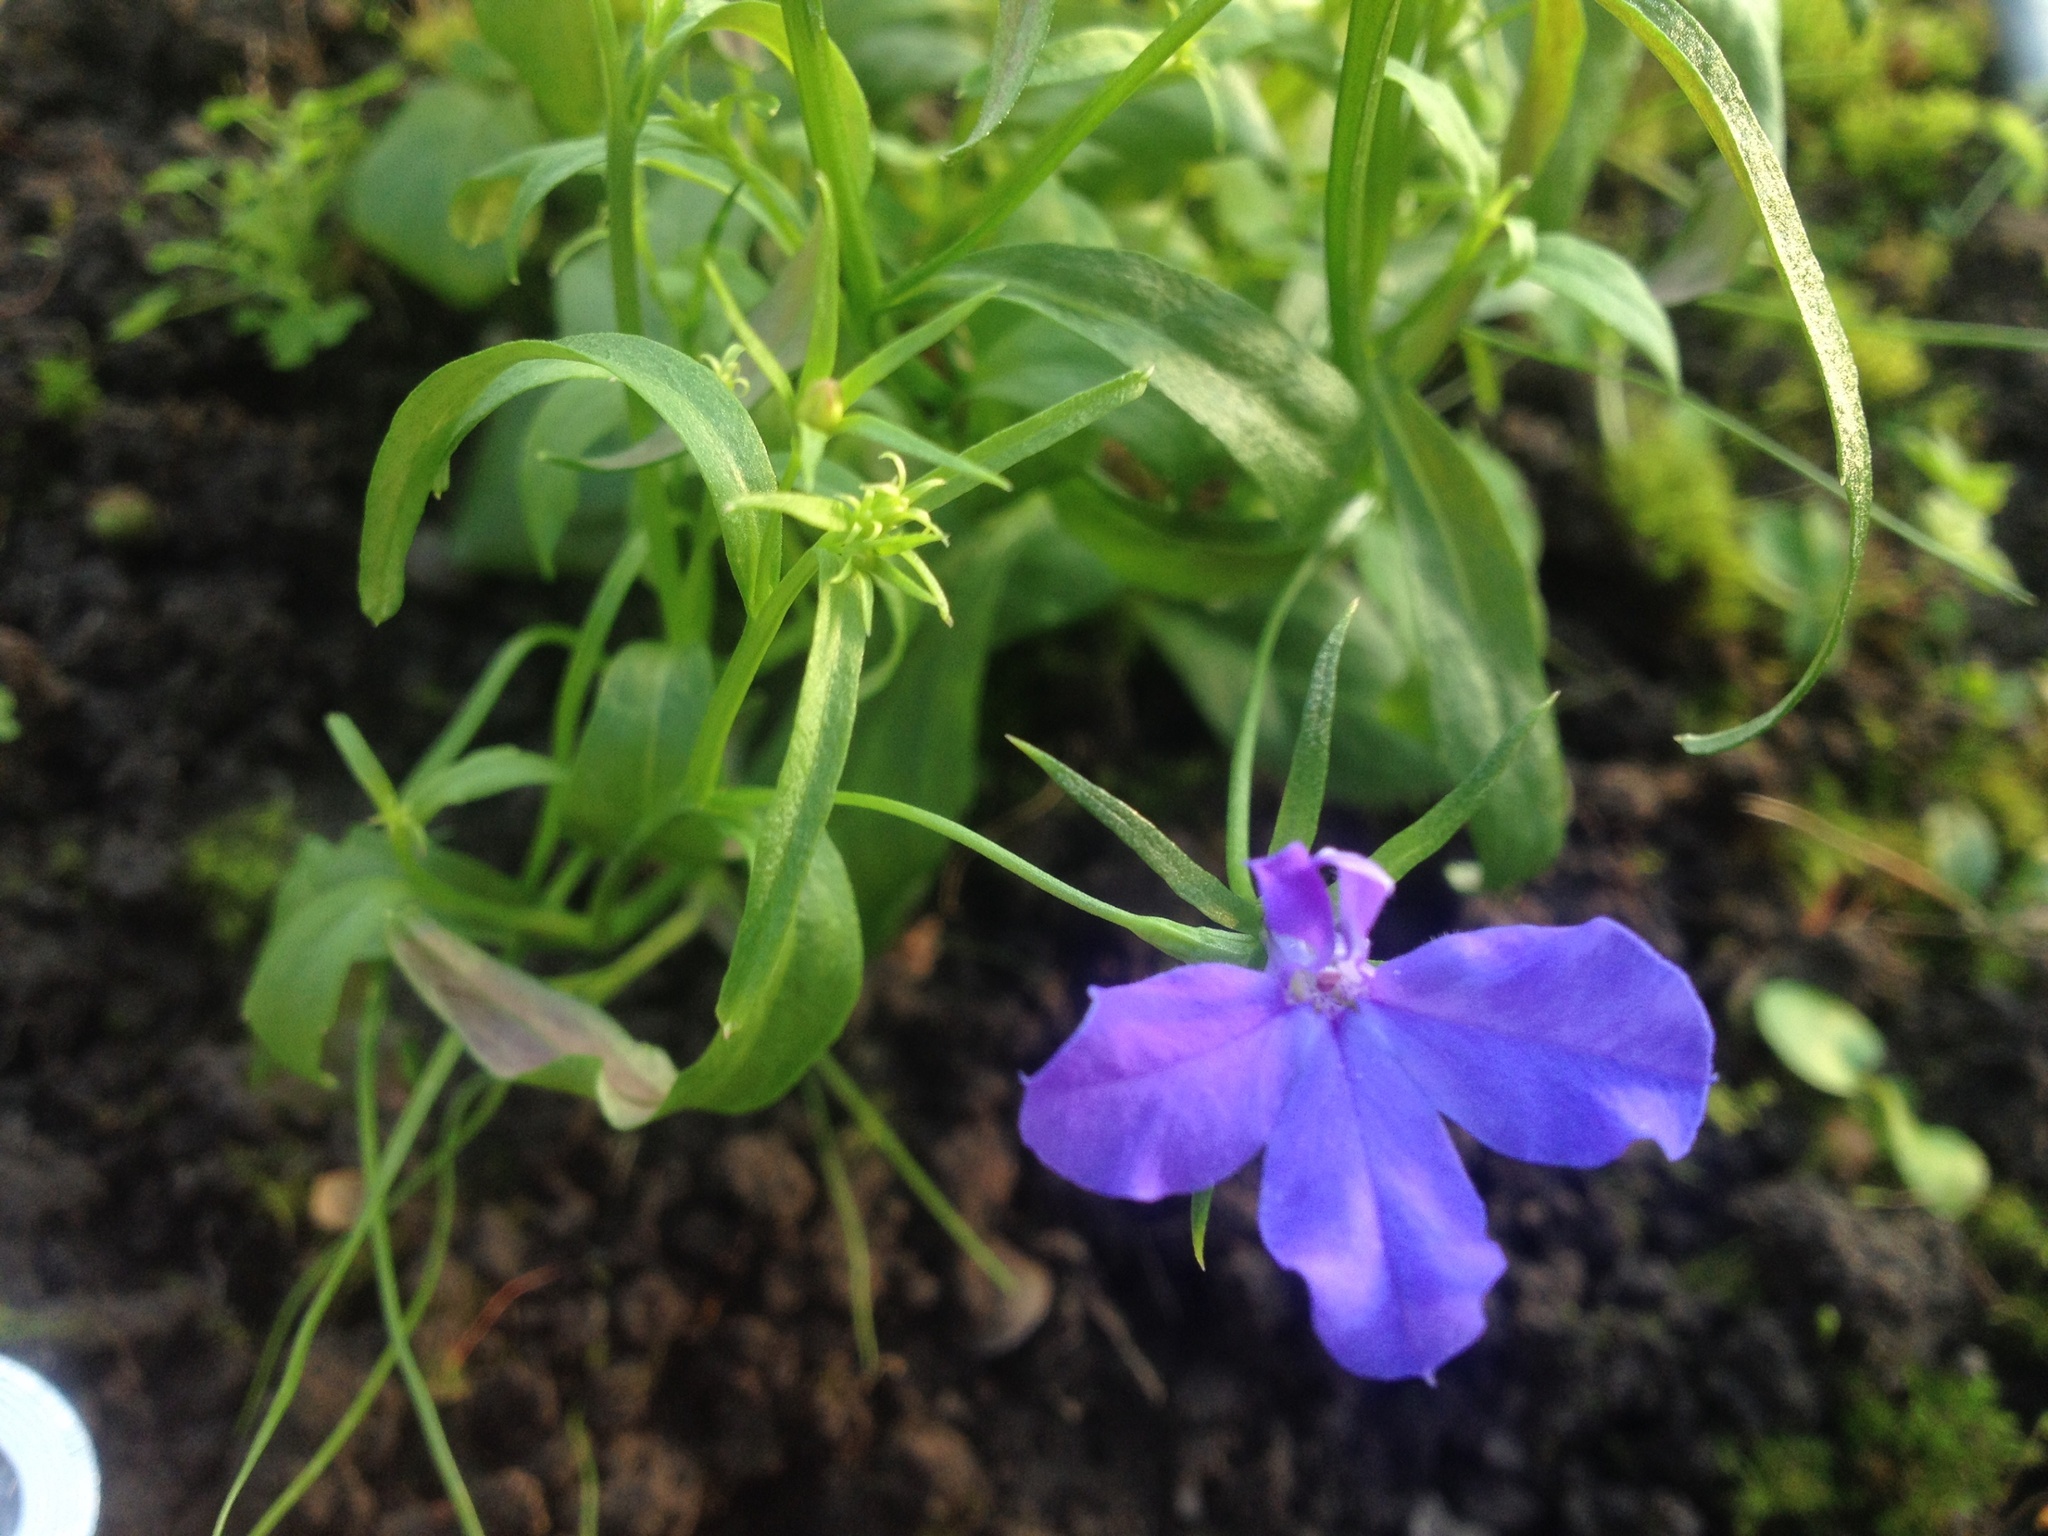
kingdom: Plantae
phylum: Tracheophyta
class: Magnoliopsida
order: Asterales
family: Campanulaceae
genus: Lobelia
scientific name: Lobelia erinus
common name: Edging lobelia
